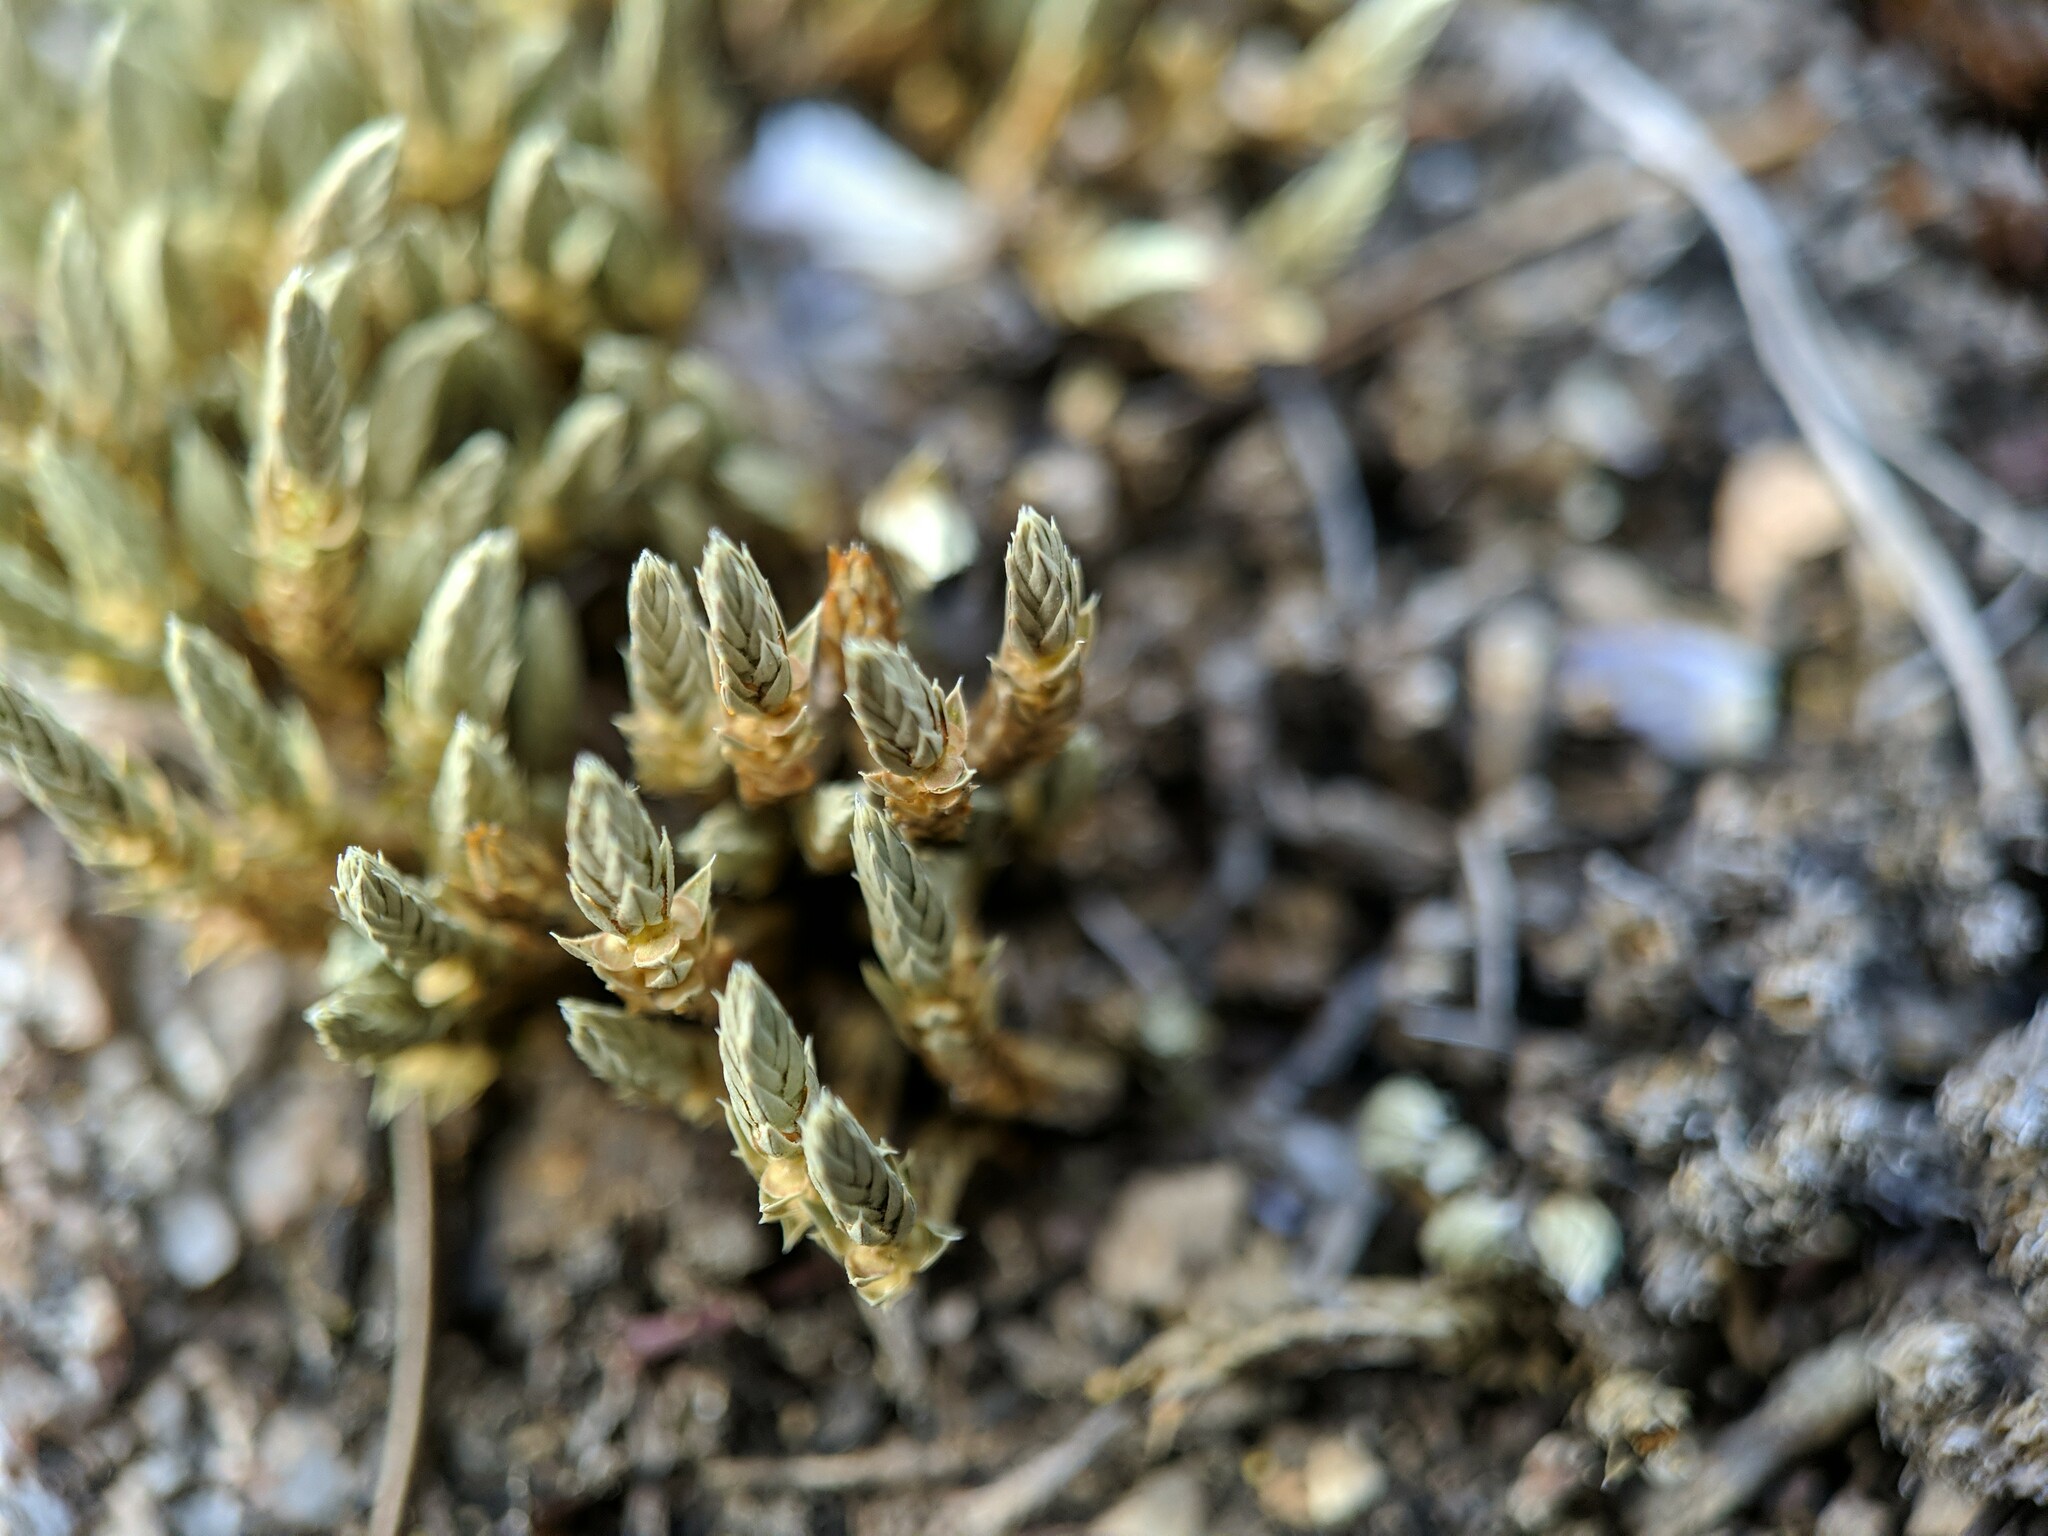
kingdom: Plantae
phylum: Tracheophyta
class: Lycopodiopsida
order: Selaginellales
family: Selaginellaceae
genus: Selaginella
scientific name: Selaginella densa
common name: Mountain spike-moss
